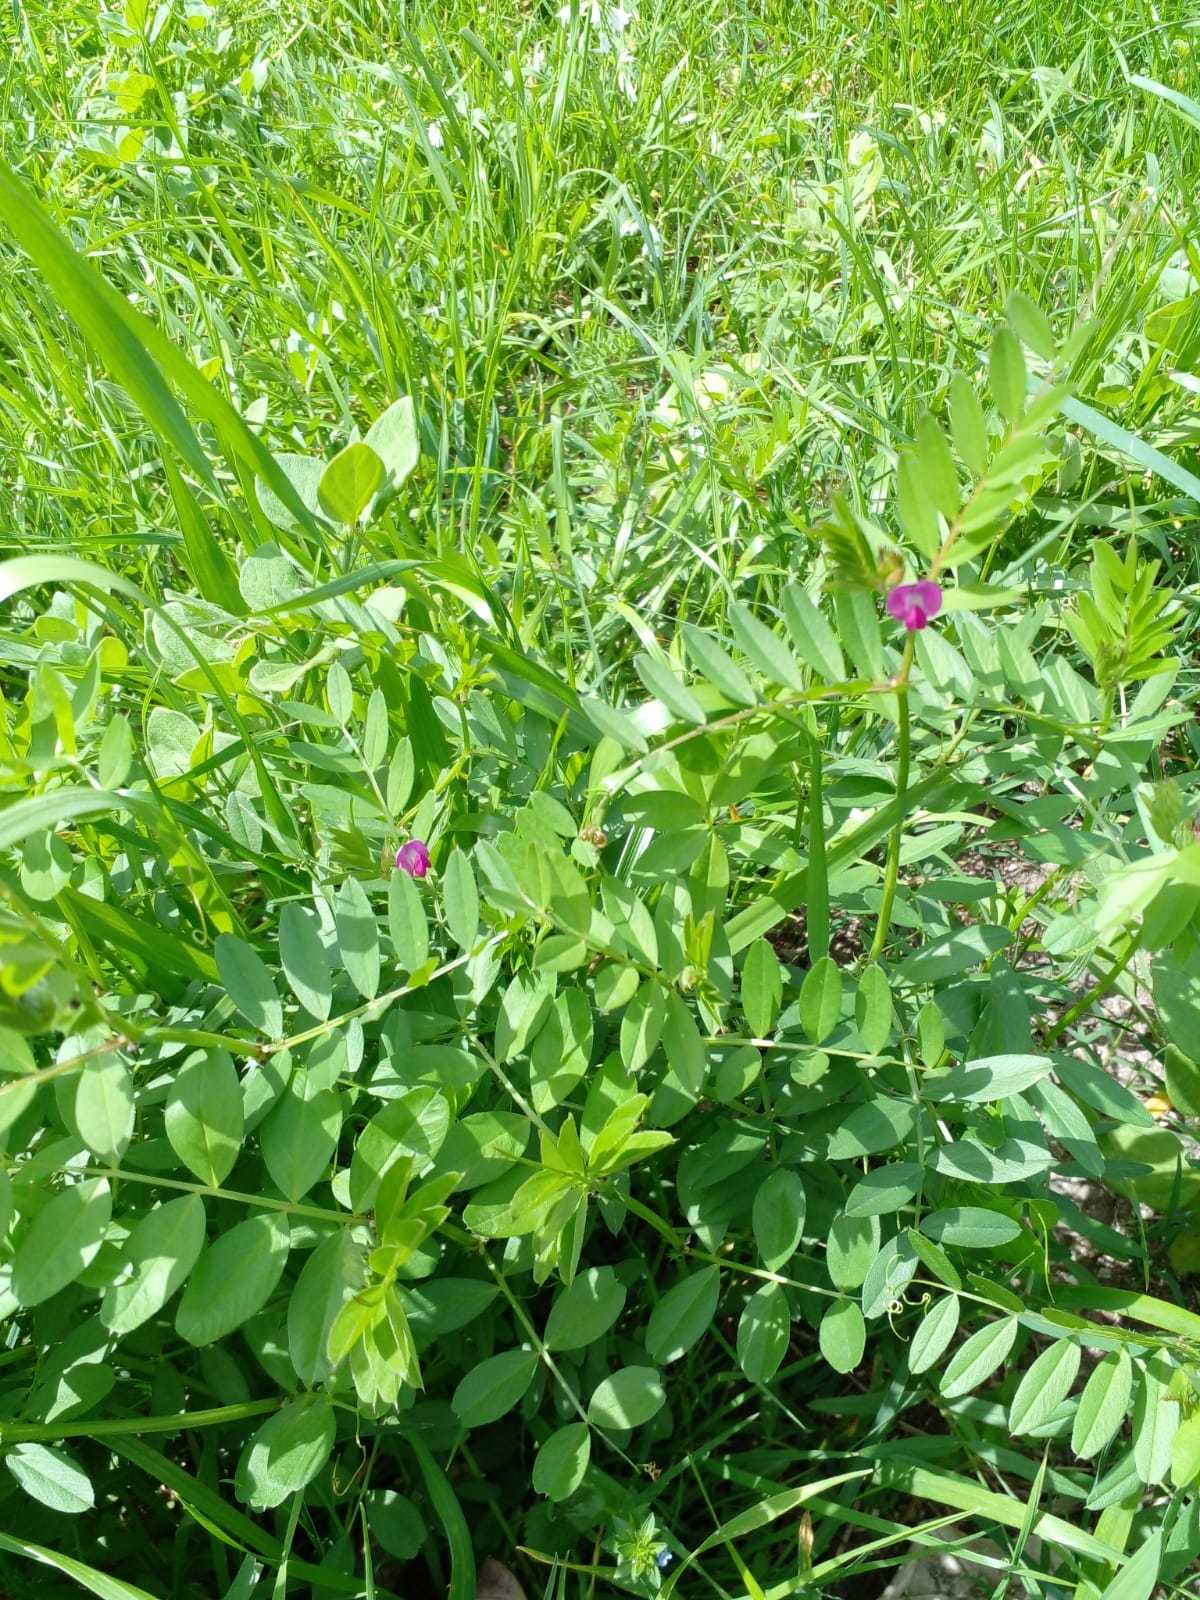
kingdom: Plantae
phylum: Tracheophyta
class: Magnoliopsida
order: Fabales
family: Fabaceae
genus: Vicia
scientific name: Vicia sativa
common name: Garden vetch
